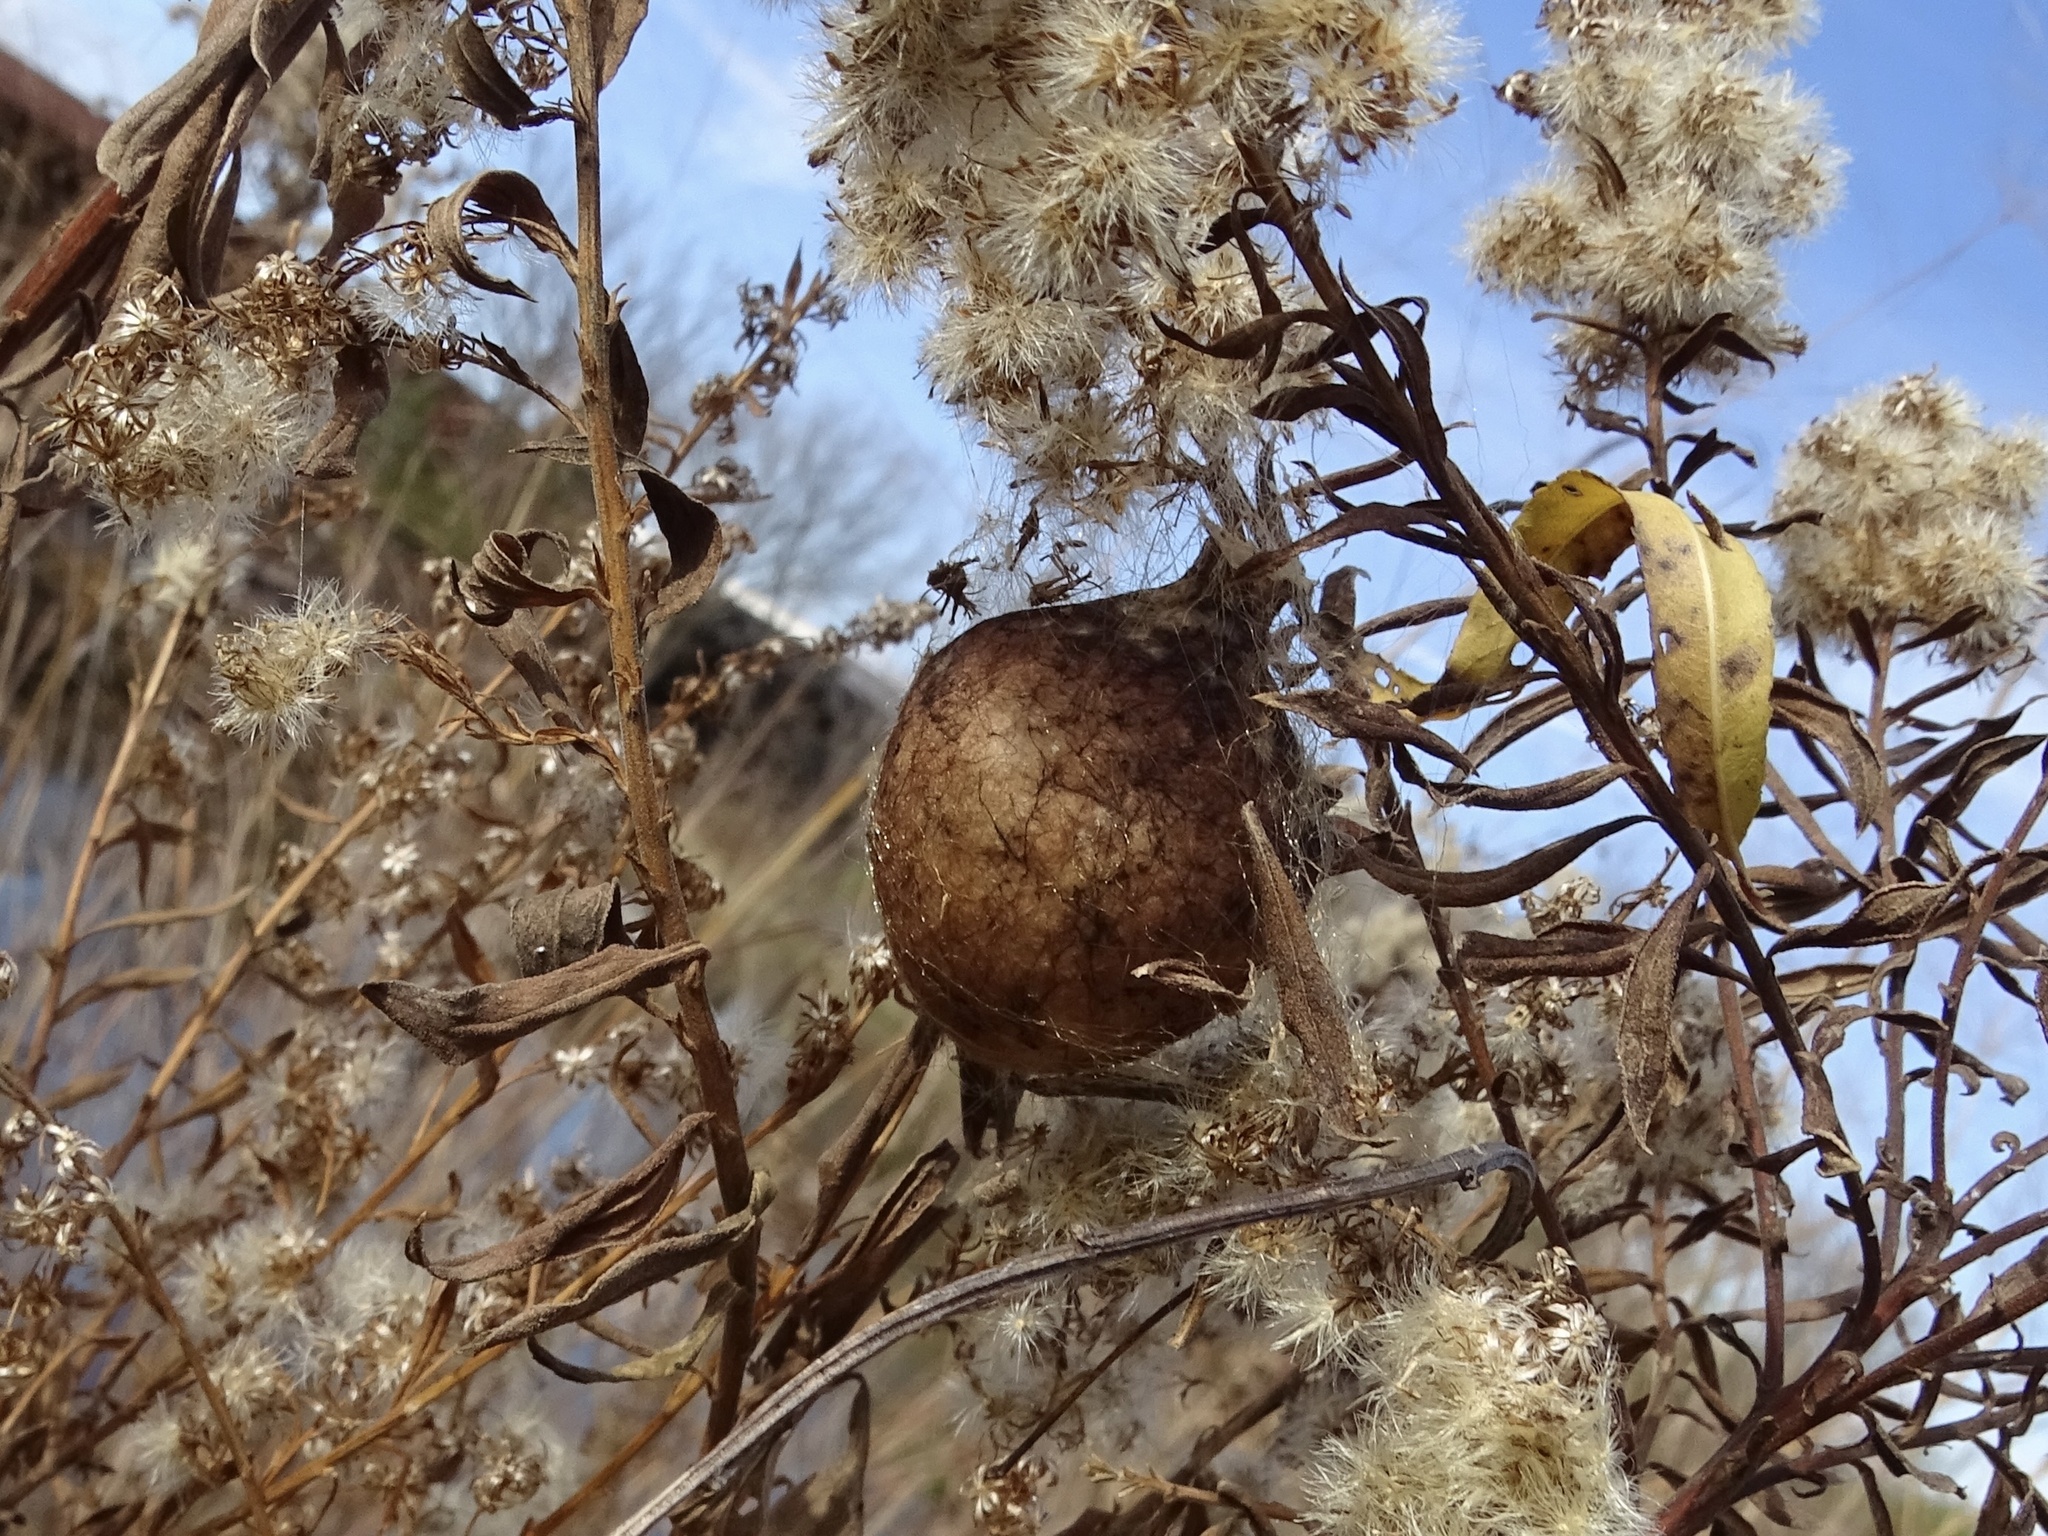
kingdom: Animalia
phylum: Arthropoda
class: Insecta
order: Diptera
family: Tephritidae
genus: Eurosta
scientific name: Eurosta solidaginis
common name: Goldenrod gall fly
